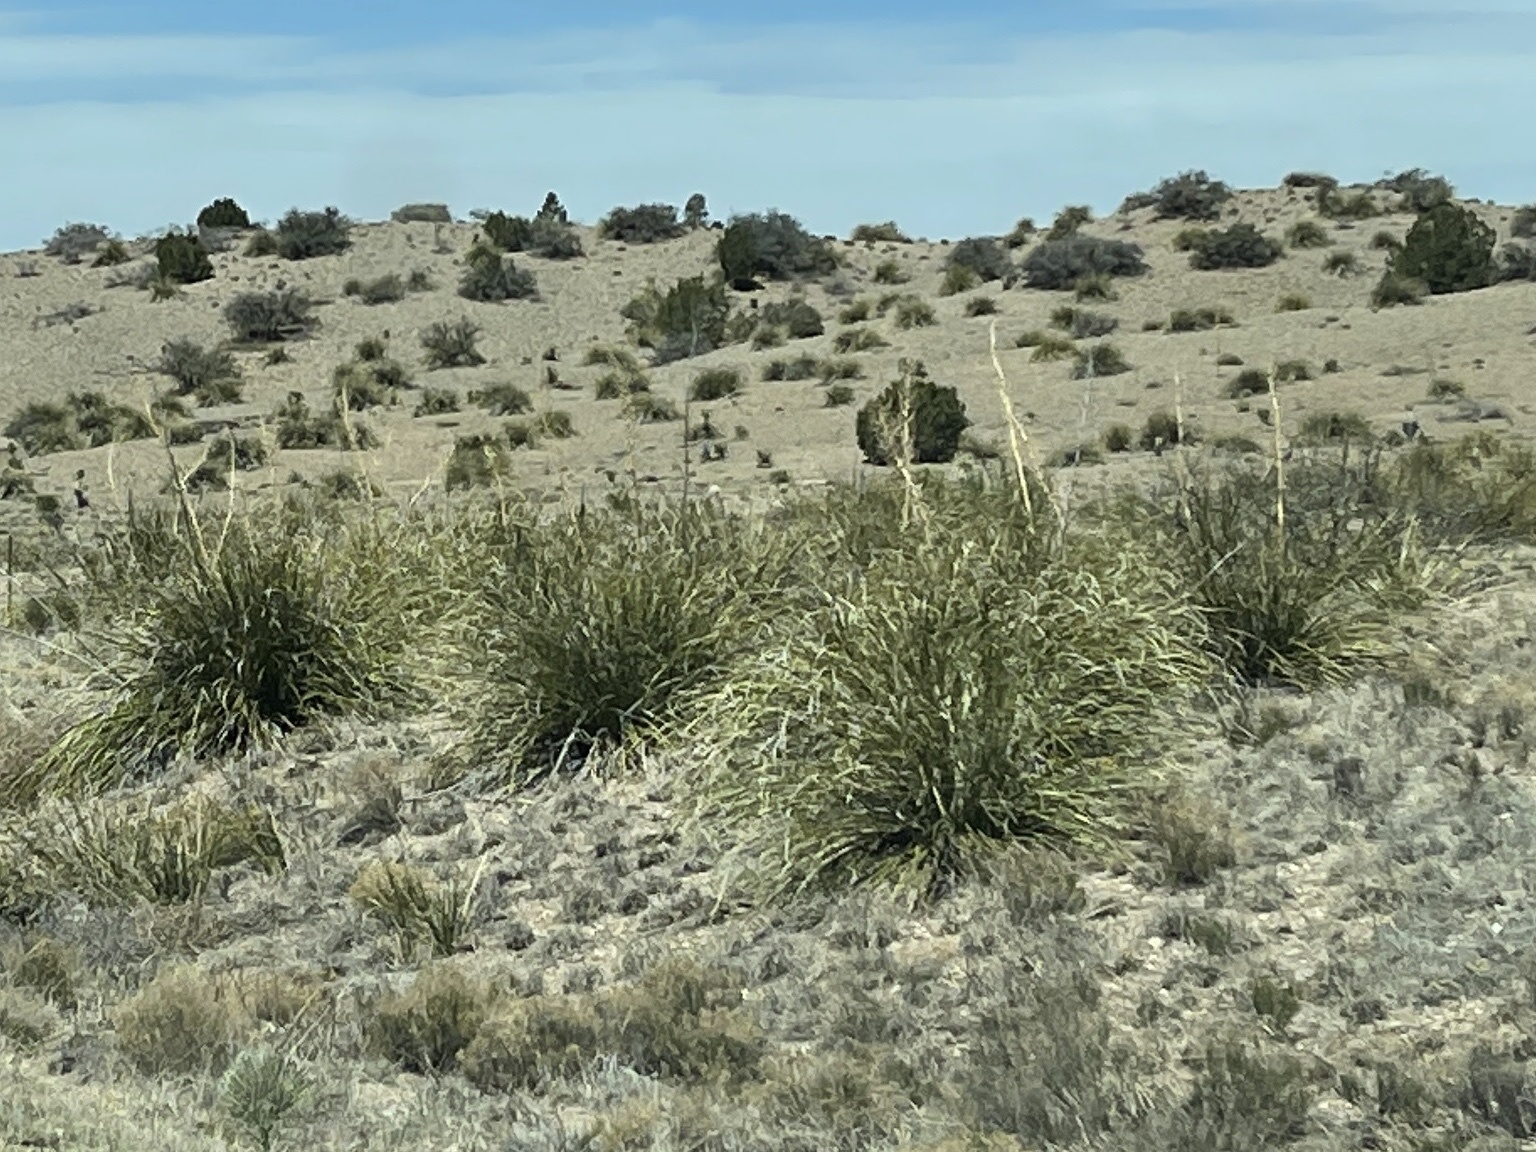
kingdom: Plantae
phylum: Tracheophyta
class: Liliopsida
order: Asparagales
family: Asparagaceae
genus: Nolina
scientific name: Nolina microcarpa
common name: Bear-grass
